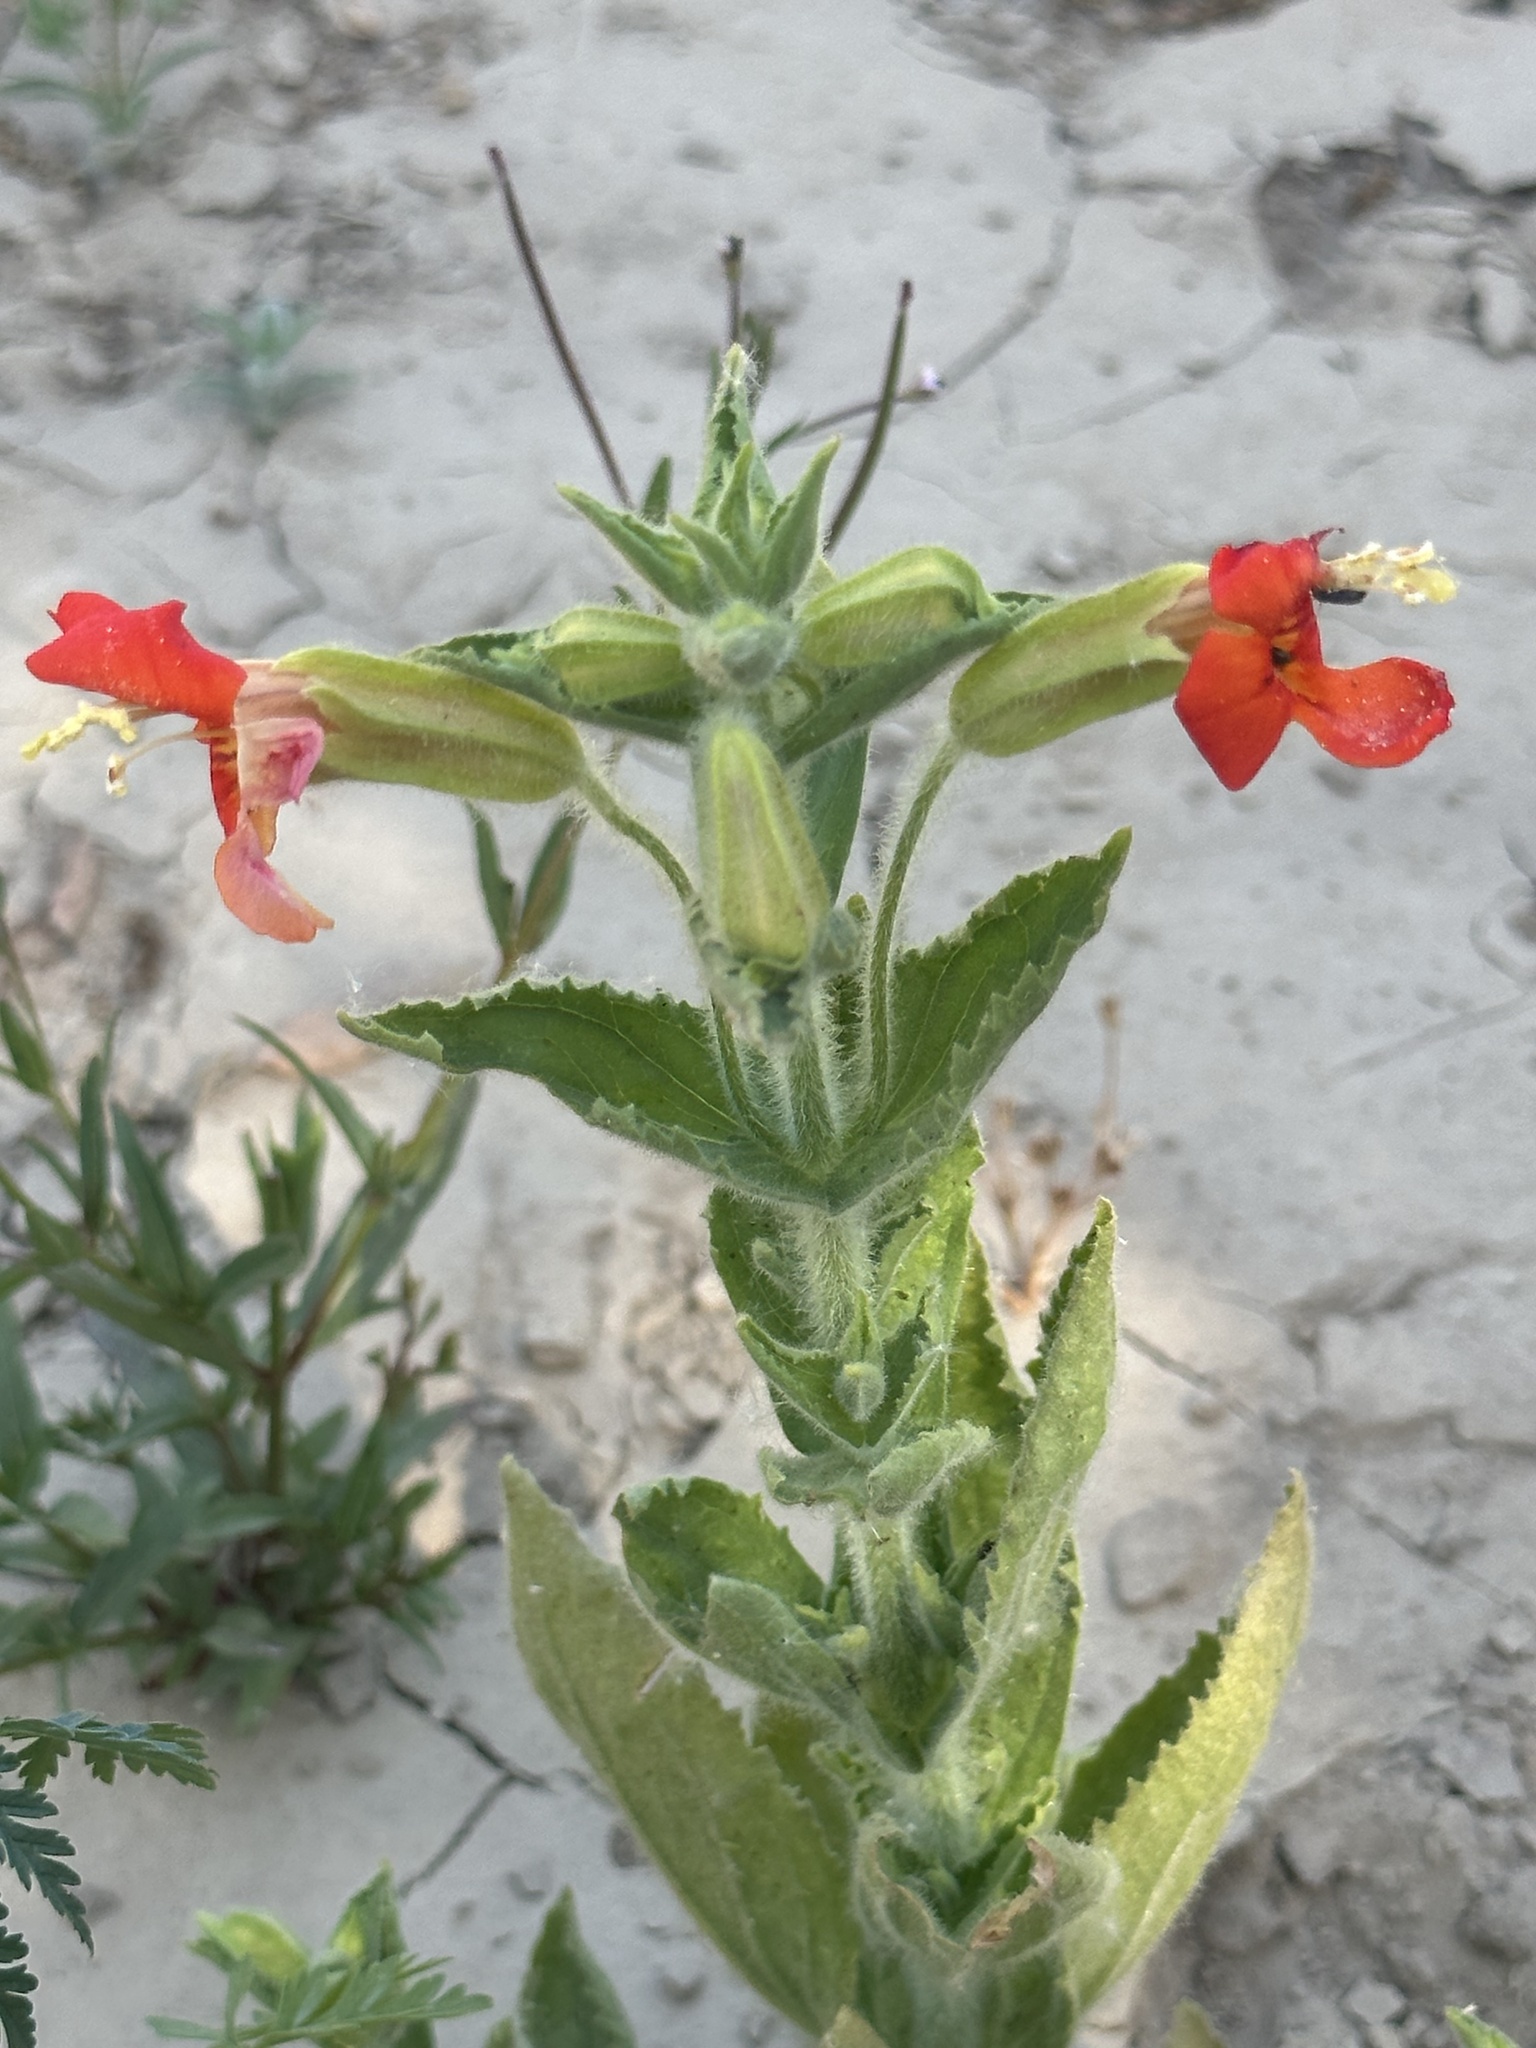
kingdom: Plantae
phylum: Tracheophyta
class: Magnoliopsida
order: Lamiales
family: Phrymaceae
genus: Erythranthe
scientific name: Erythranthe cardinalis
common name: Scarlet monkey-flower
